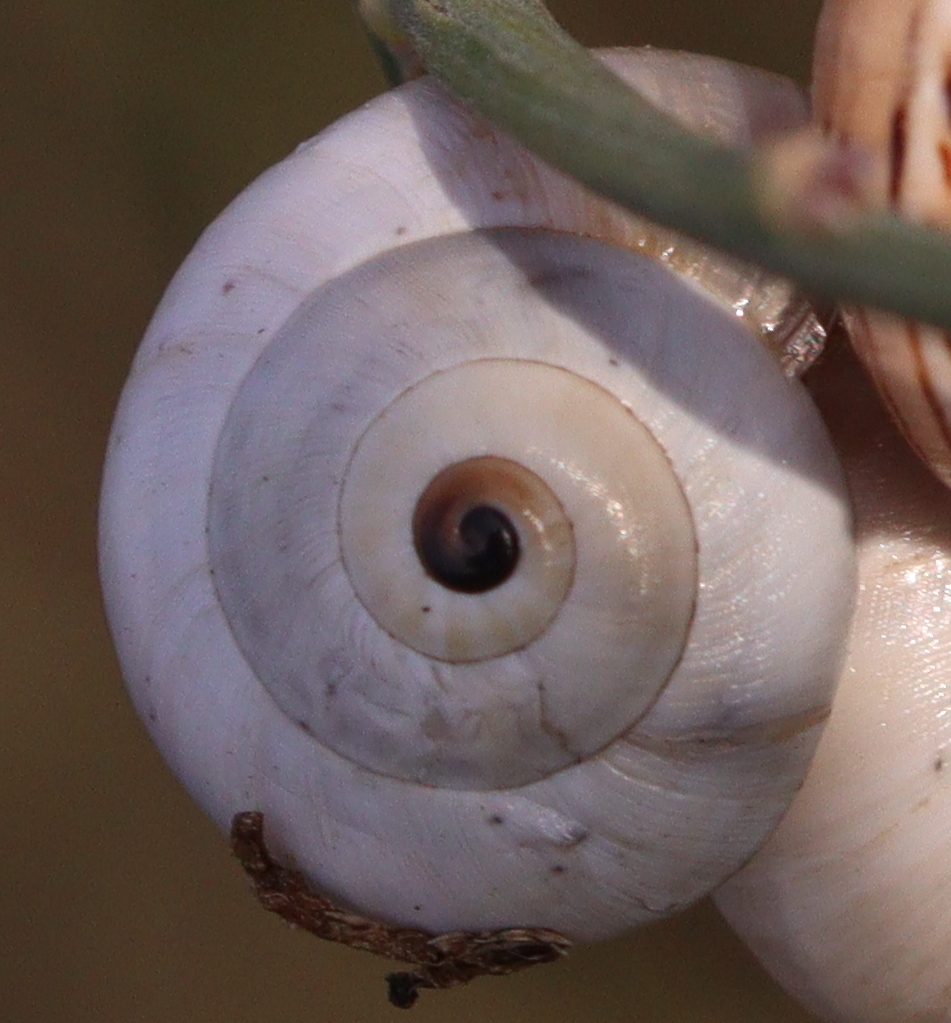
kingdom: Animalia
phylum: Mollusca
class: Gastropoda
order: Stylommatophora
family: Helicidae
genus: Theba
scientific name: Theba pisana
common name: White snail
